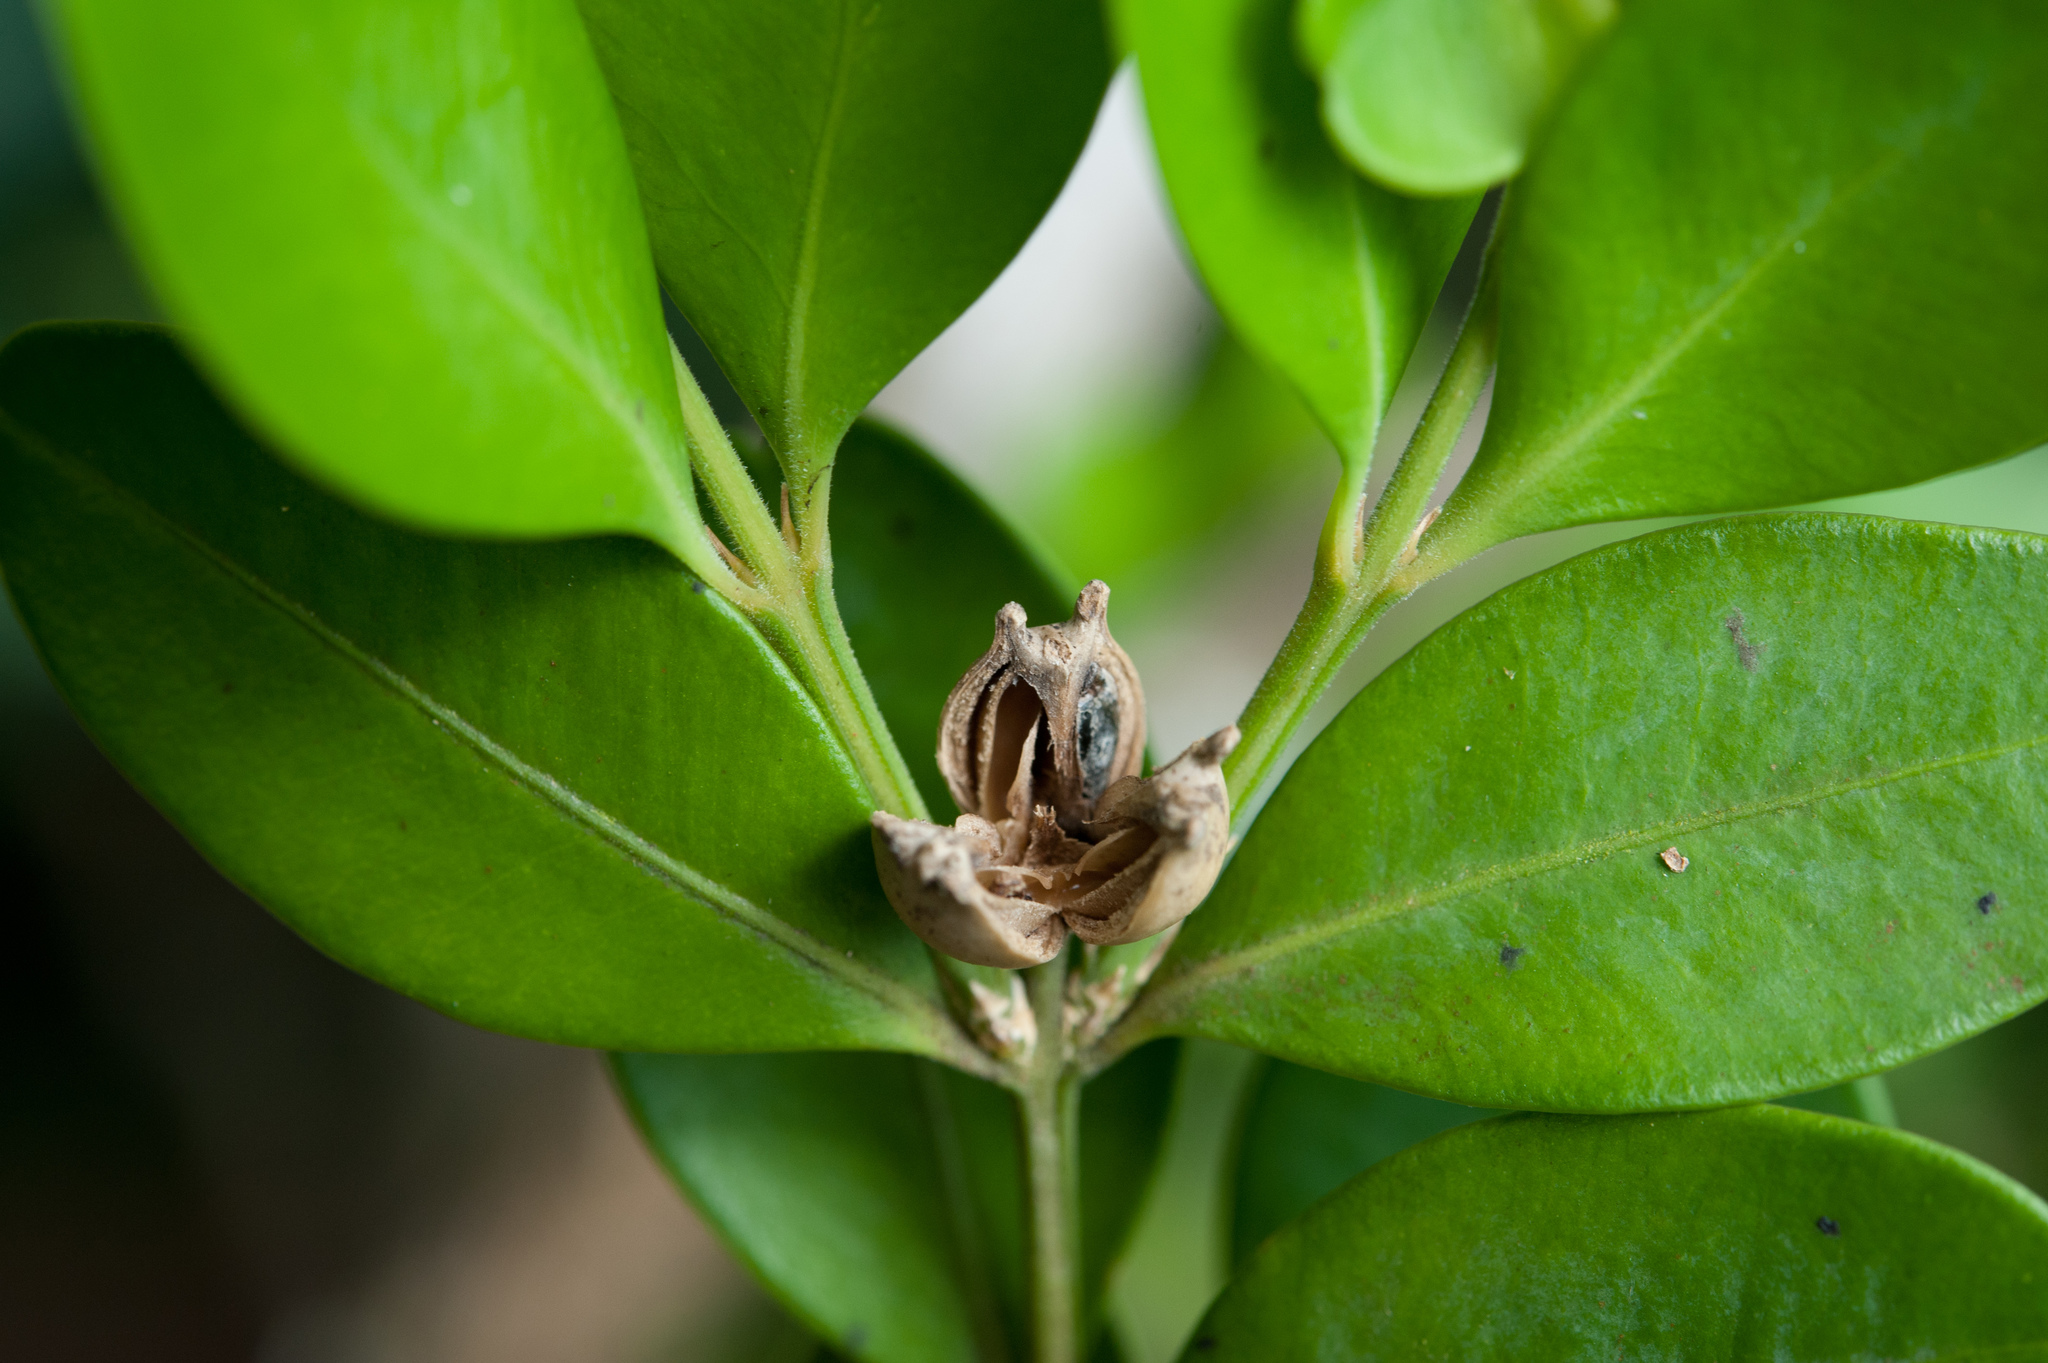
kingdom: Plantae
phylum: Tracheophyta
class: Magnoliopsida
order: Buxales
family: Buxaceae
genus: Buxus
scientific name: Buxus liukiuensis
